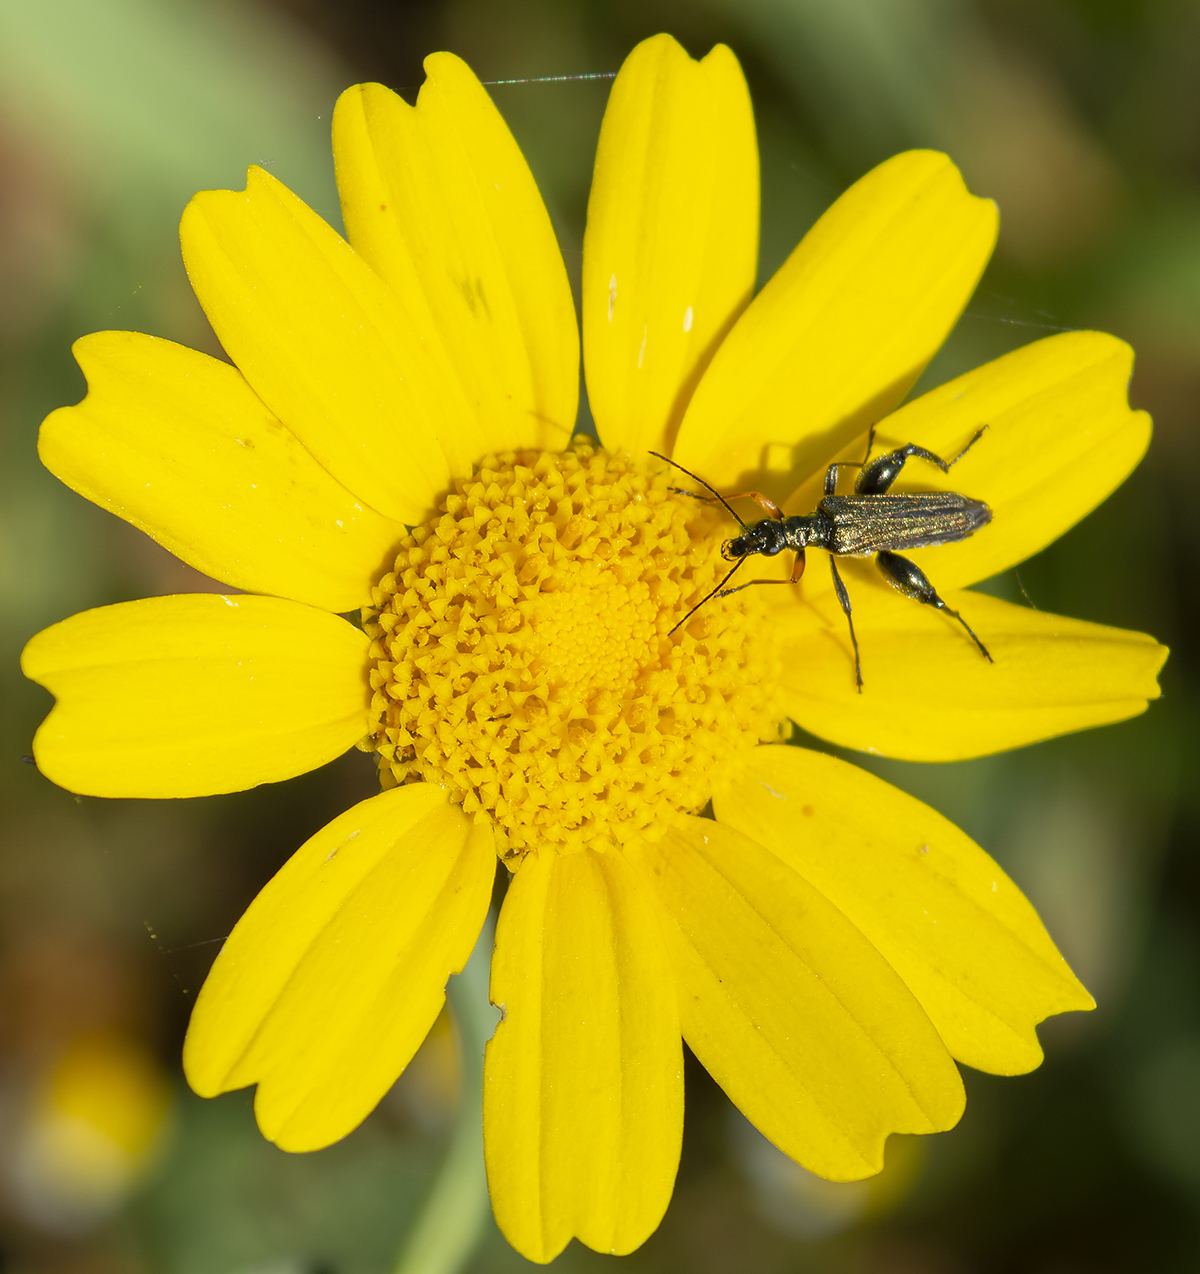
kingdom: Animalia
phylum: Arthropoda
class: Insecta
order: Coleoptera
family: Oedemeridae
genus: Oedemera
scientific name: Oedemera flavipes
